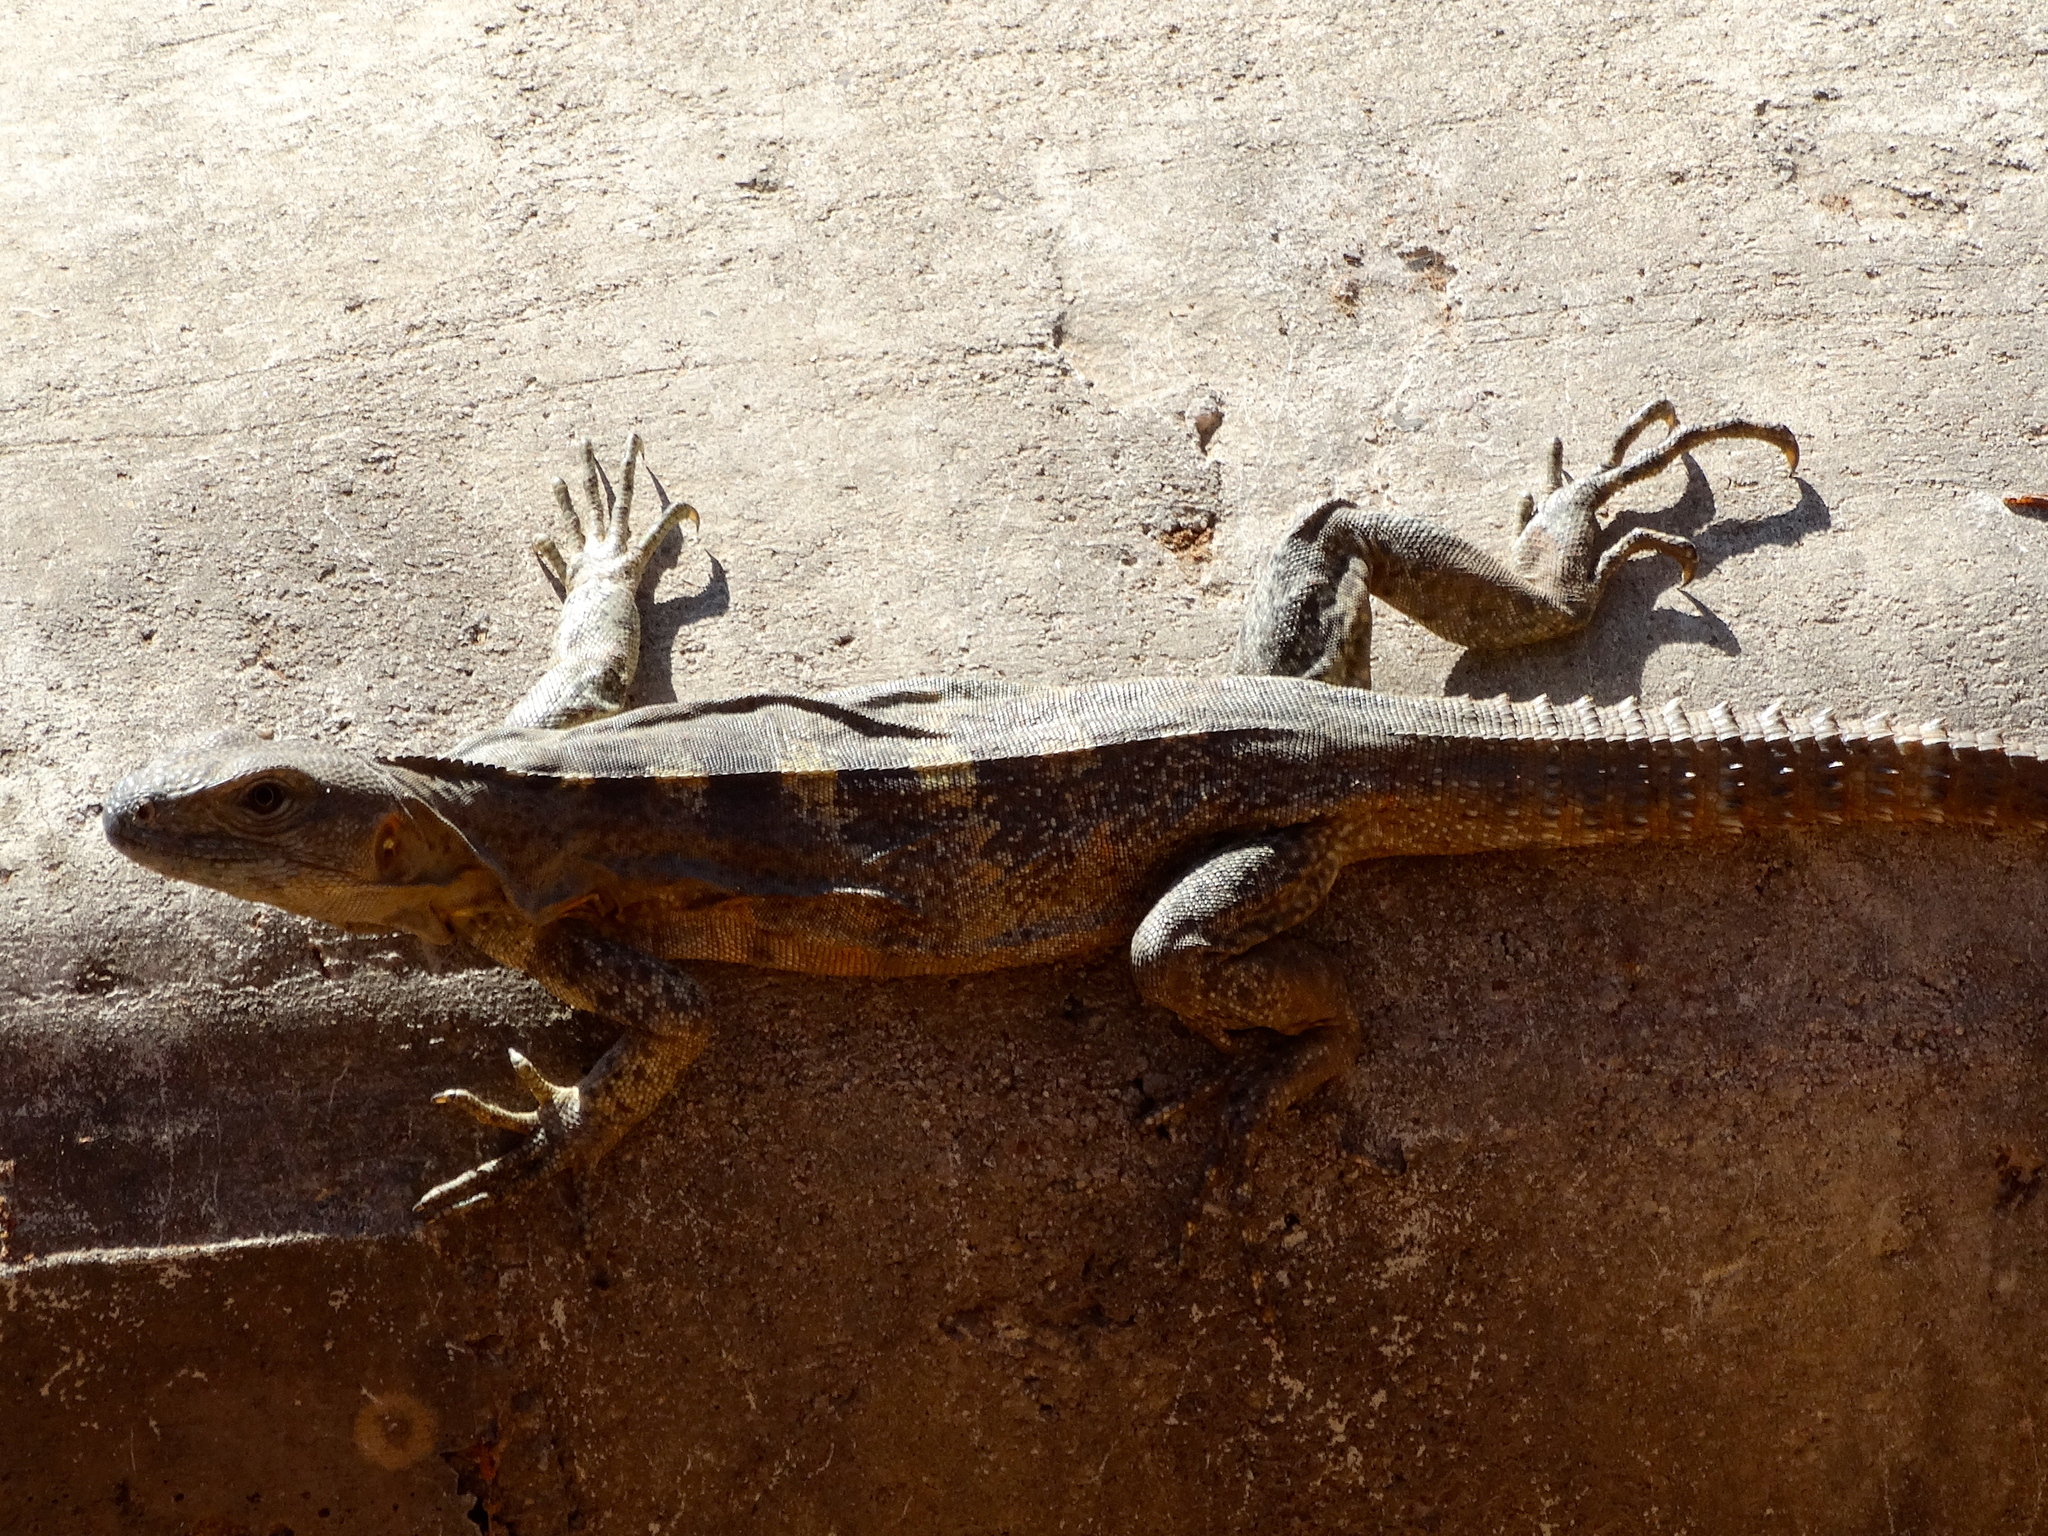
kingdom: Animalia
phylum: Chordata
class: Squamata
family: Iguanidae
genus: Ctenosaura
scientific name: Ctenosaura pectinata
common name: Guerreran spiny-tailed iguana
